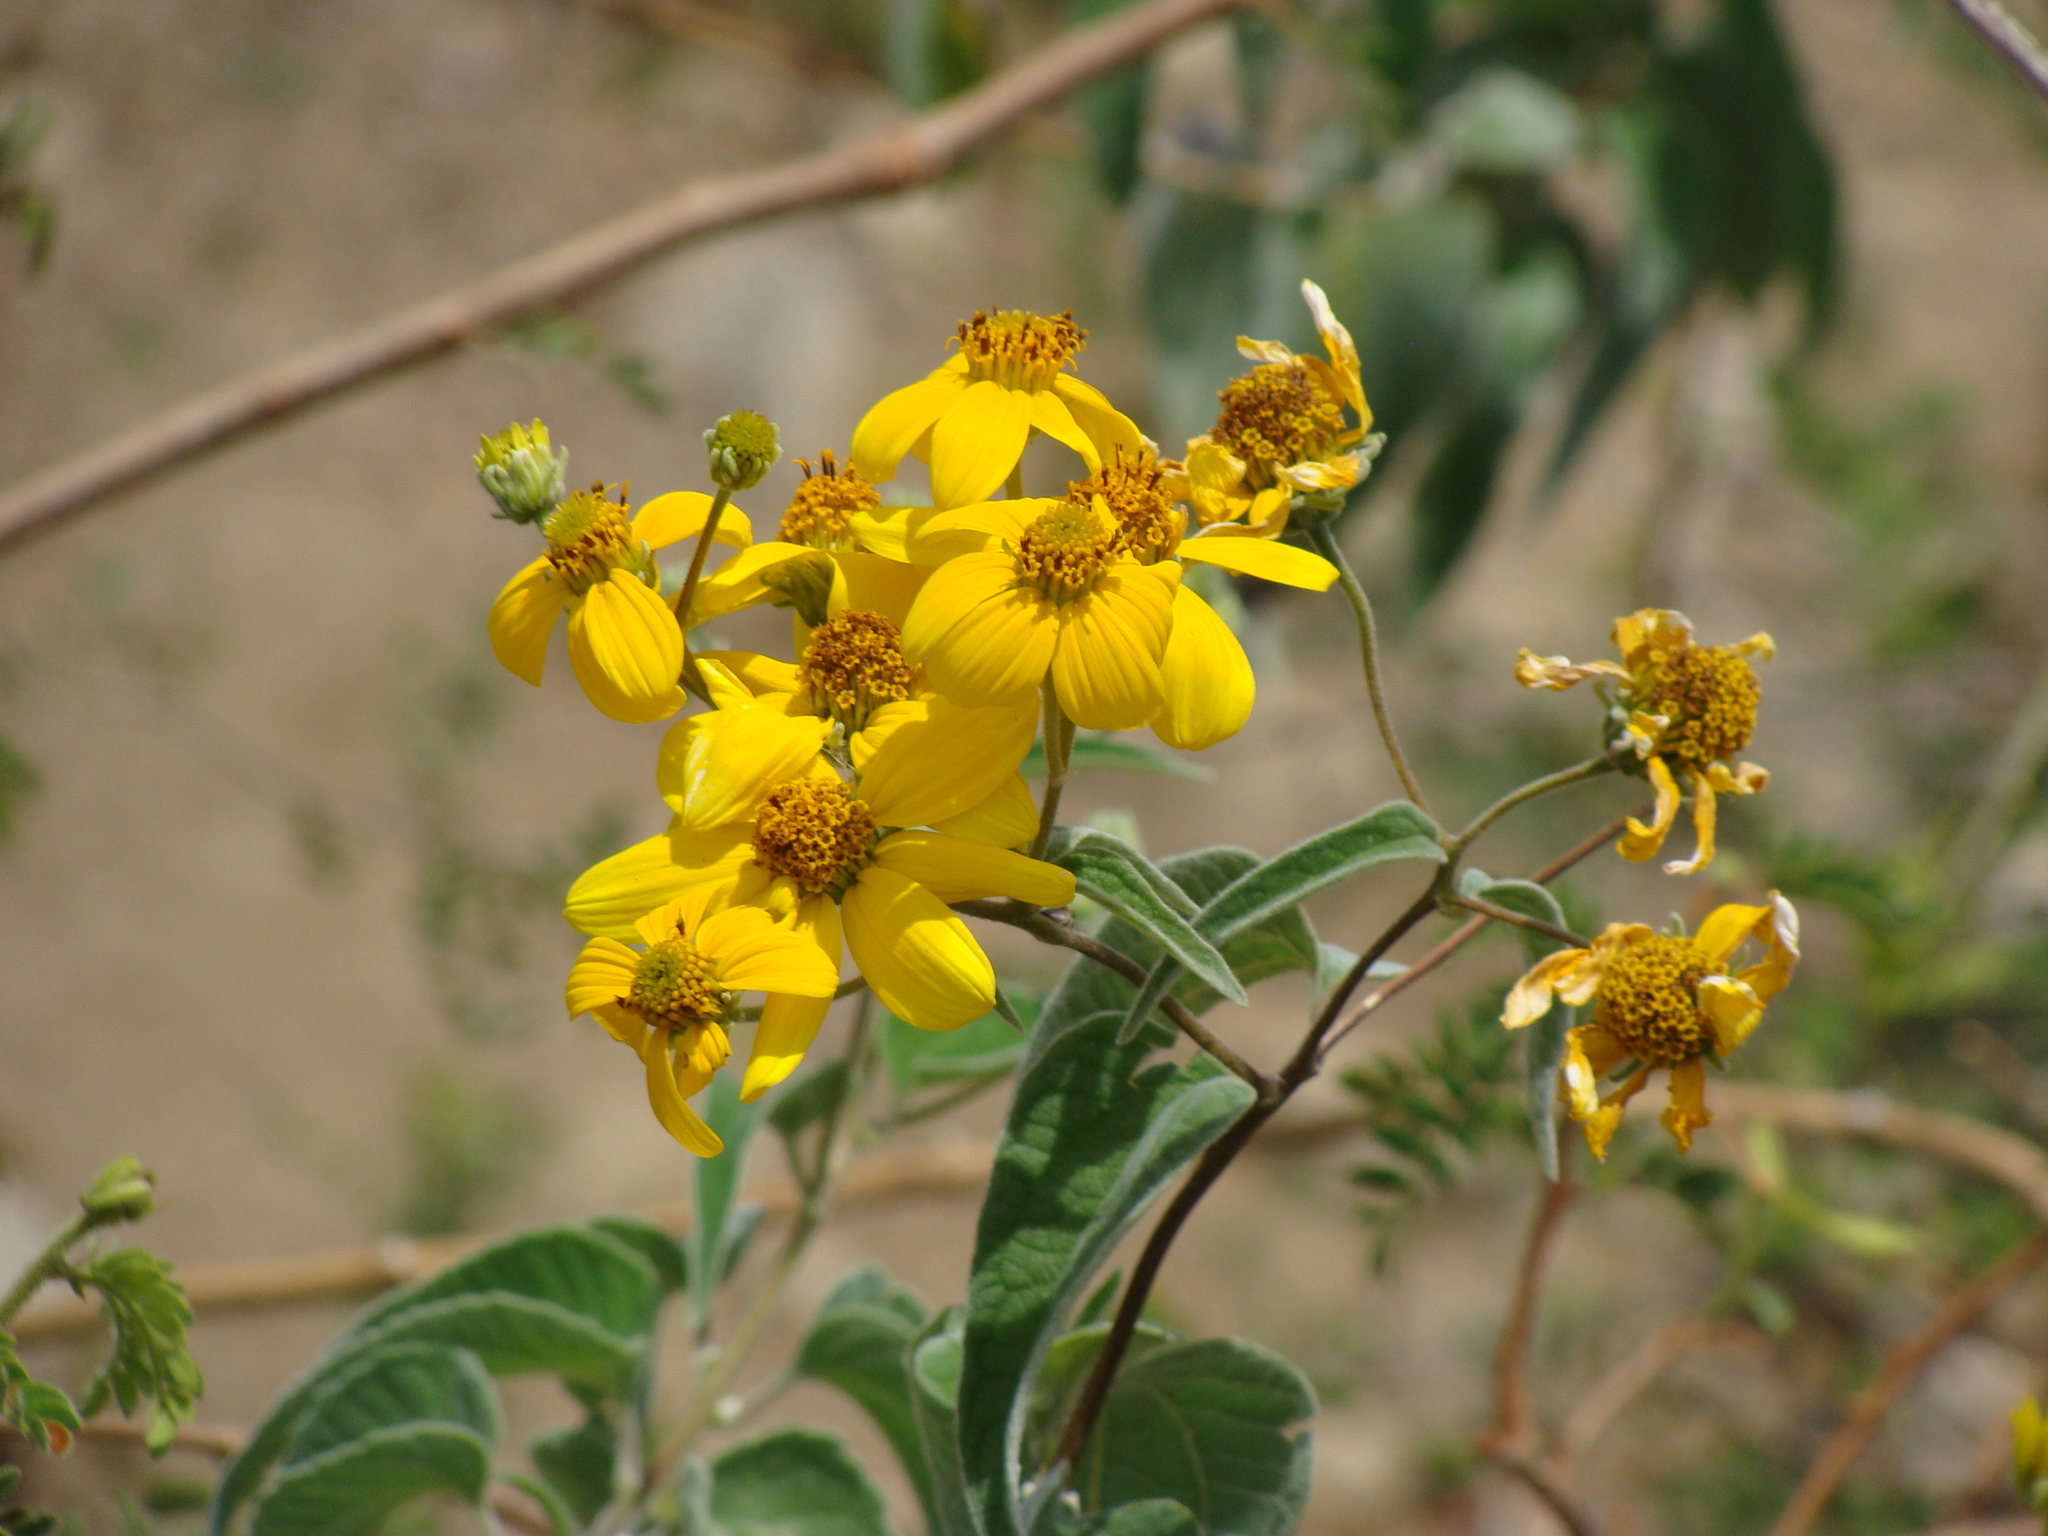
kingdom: Plantae
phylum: Tracheophyta
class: Magnoliopsida
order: Asterales
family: Asteraceae
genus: Bahiopsis
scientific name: Bahiopsis tomentosa
